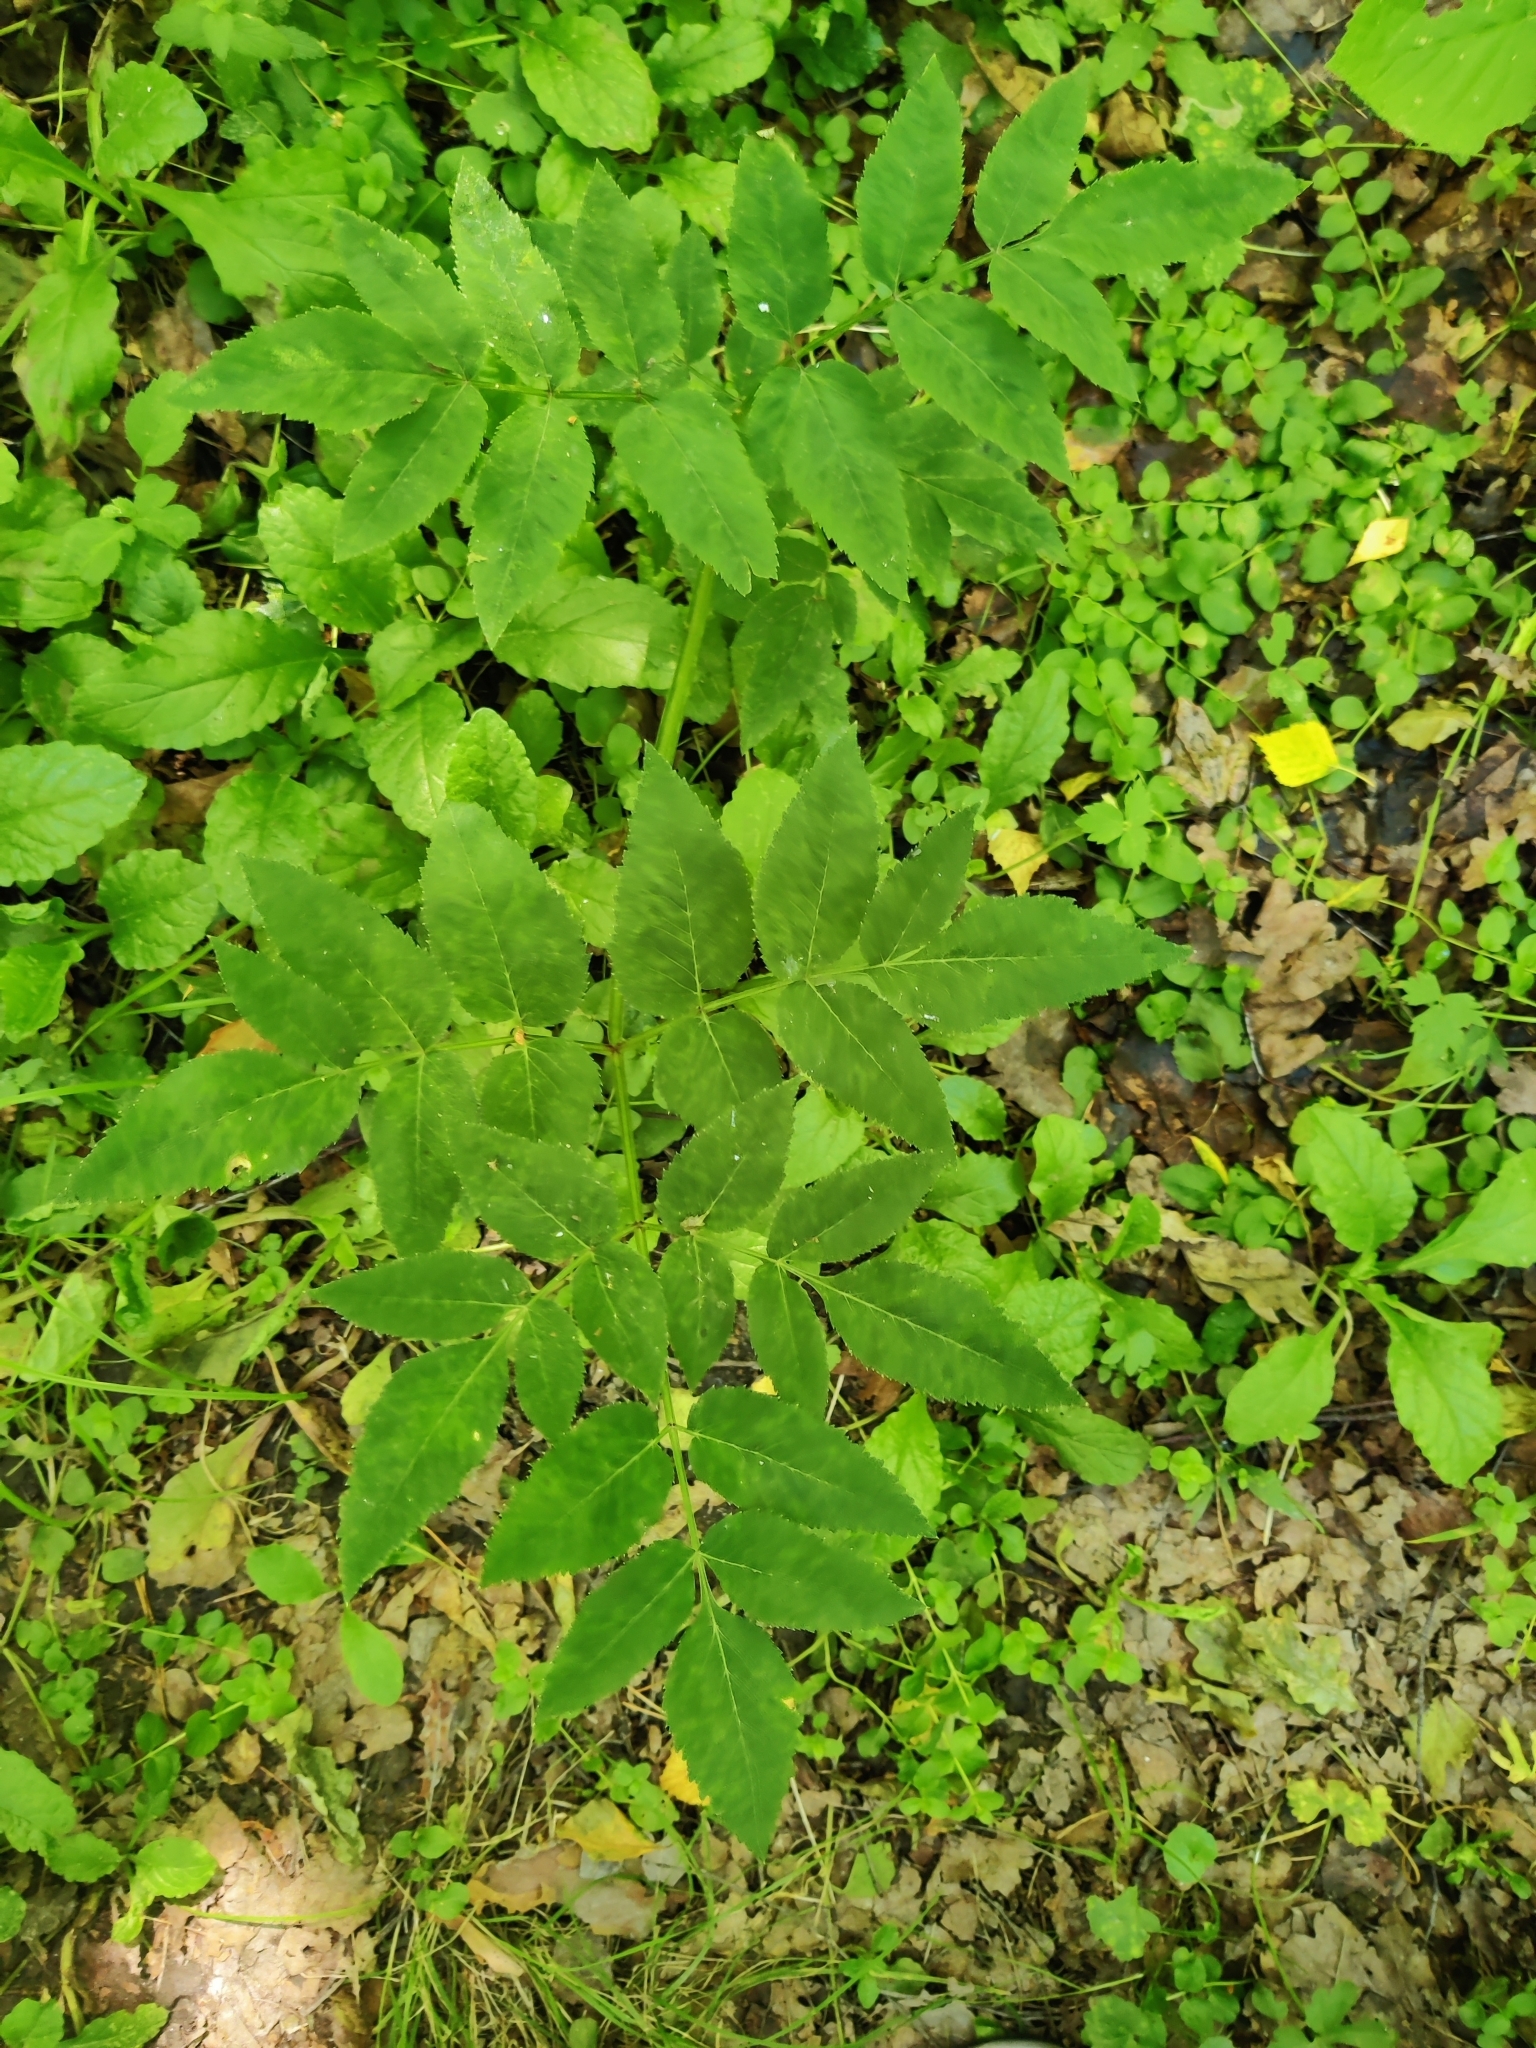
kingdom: Plantae
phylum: Tracheophyta
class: Magnoliopsida
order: Apiales
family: Apiaceae
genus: Angelica
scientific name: Angelica sylvestris
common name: Wild angelica
